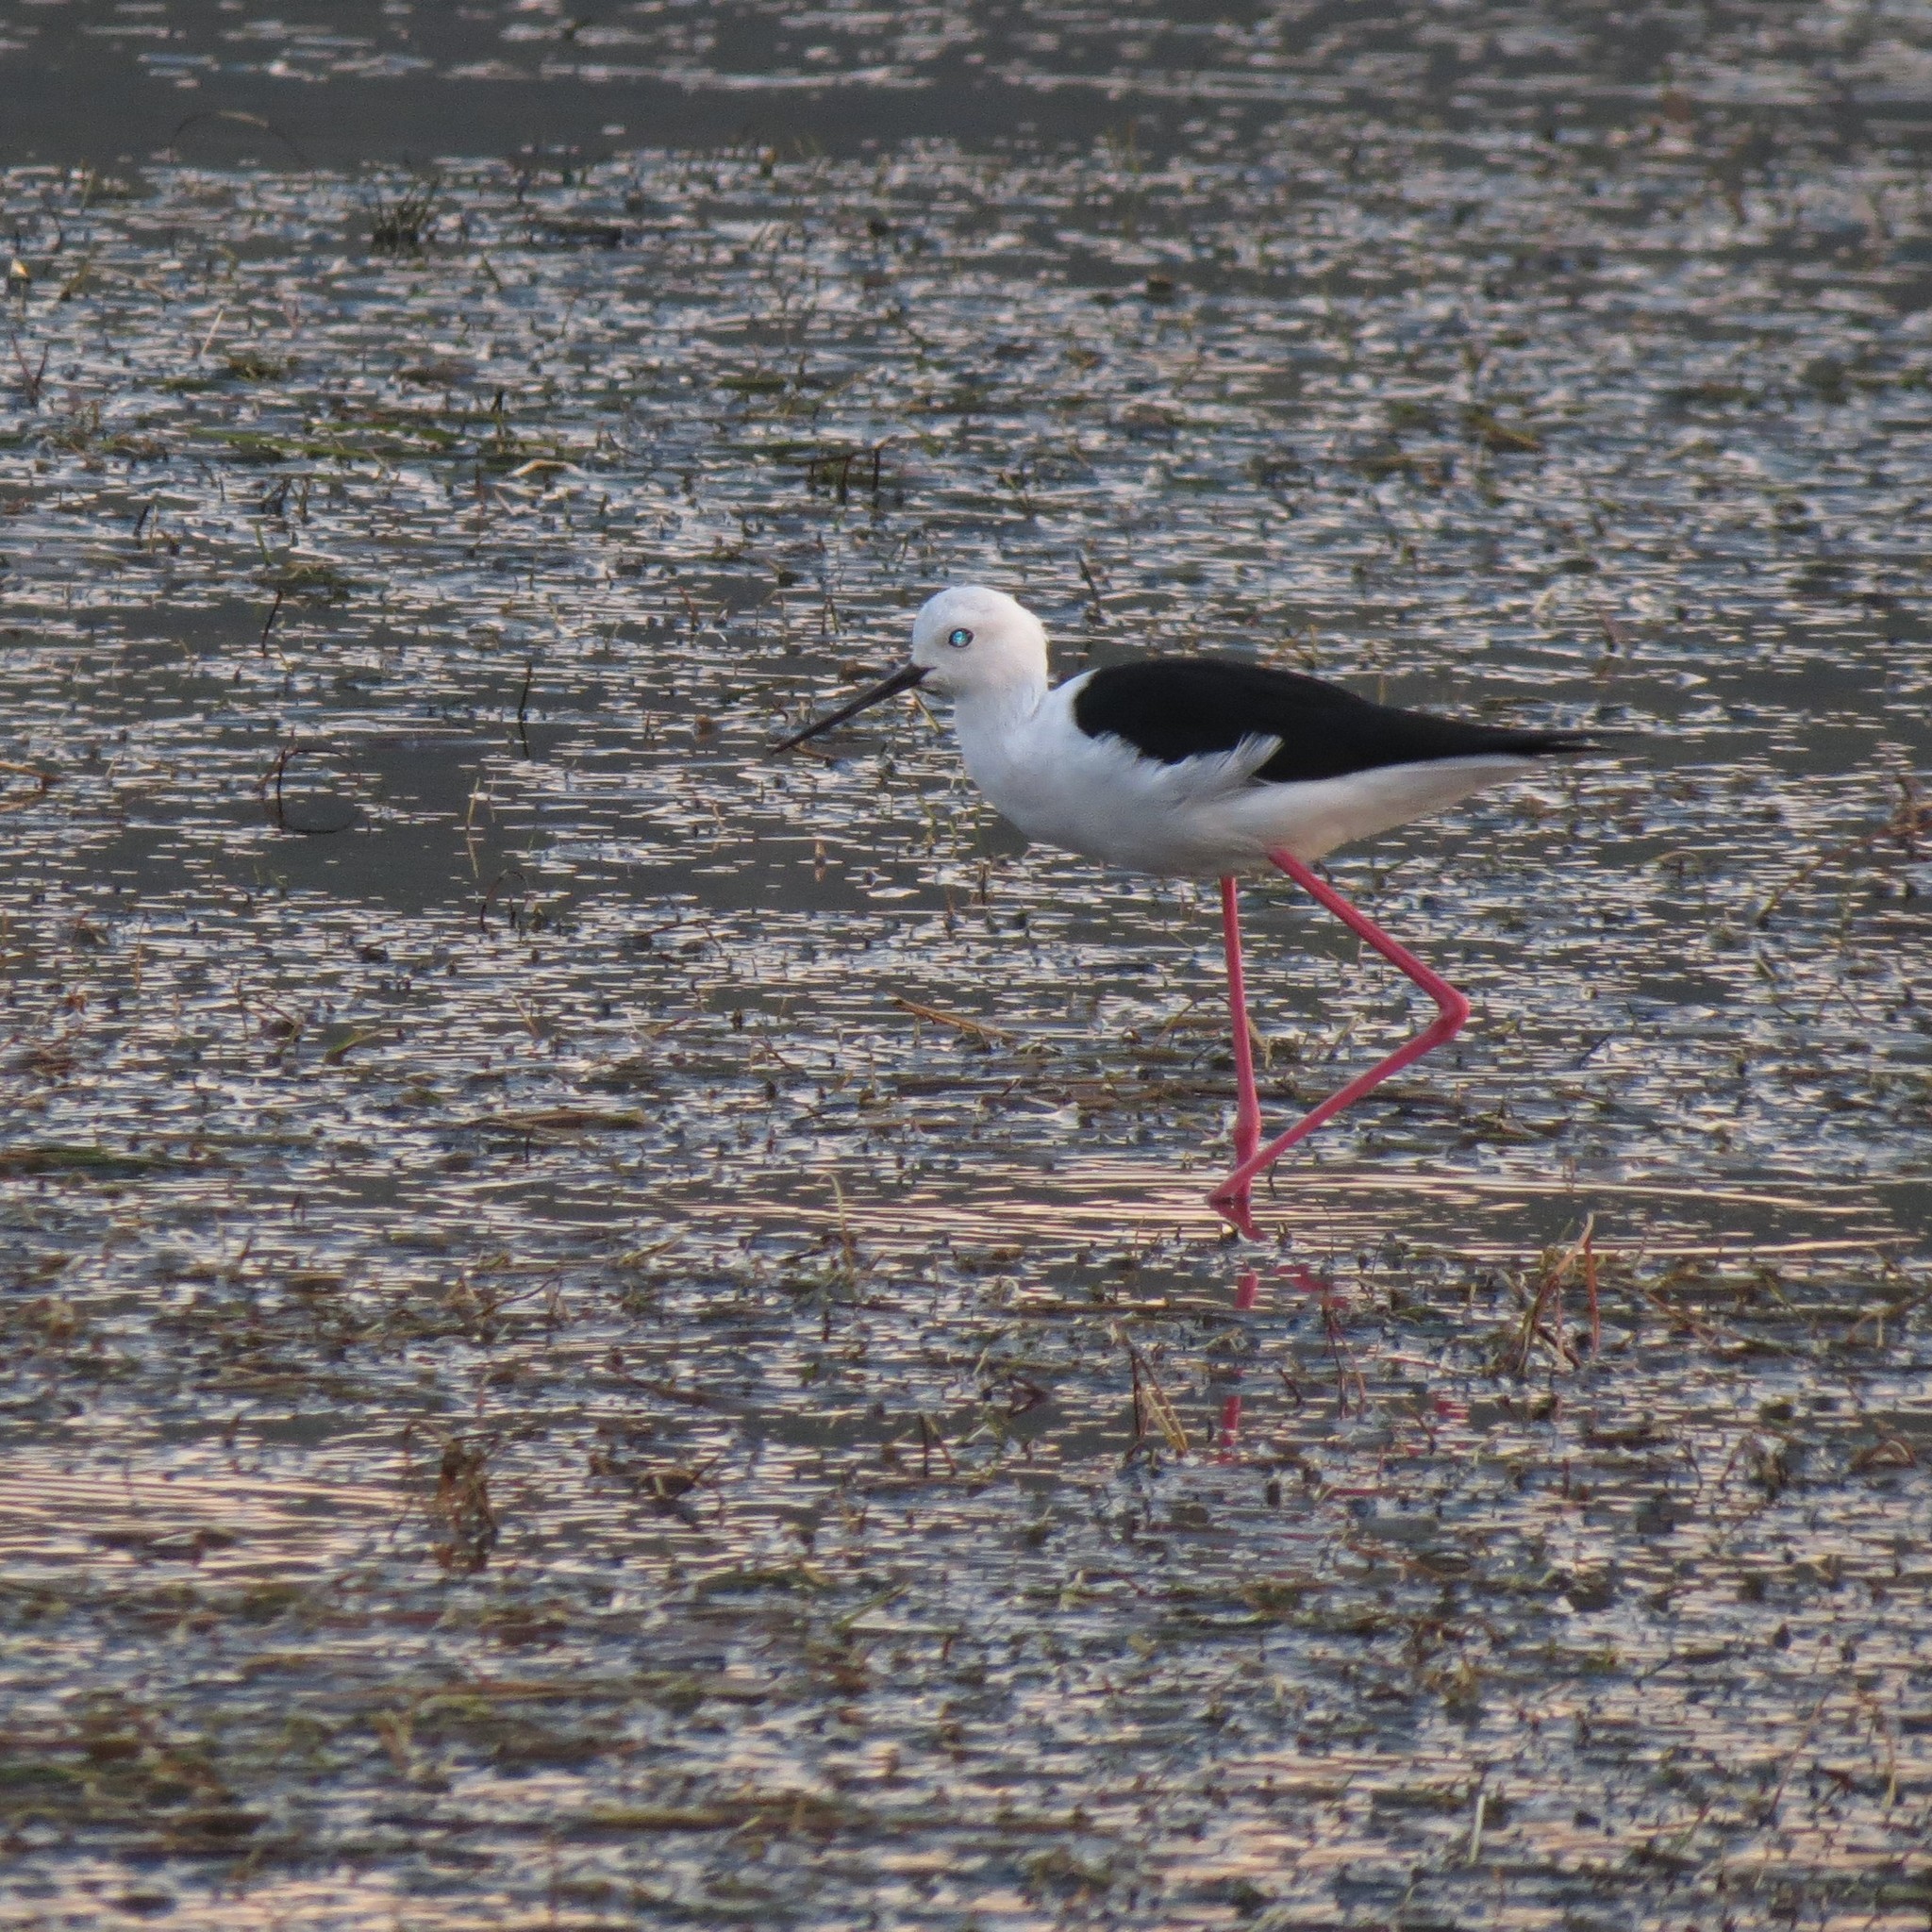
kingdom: Animalia
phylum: Chordata
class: Aves
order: Charadriiformes
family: Recurvirostridae
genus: Himantopus
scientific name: Himantopus himantopus
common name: Black-winged stilt
